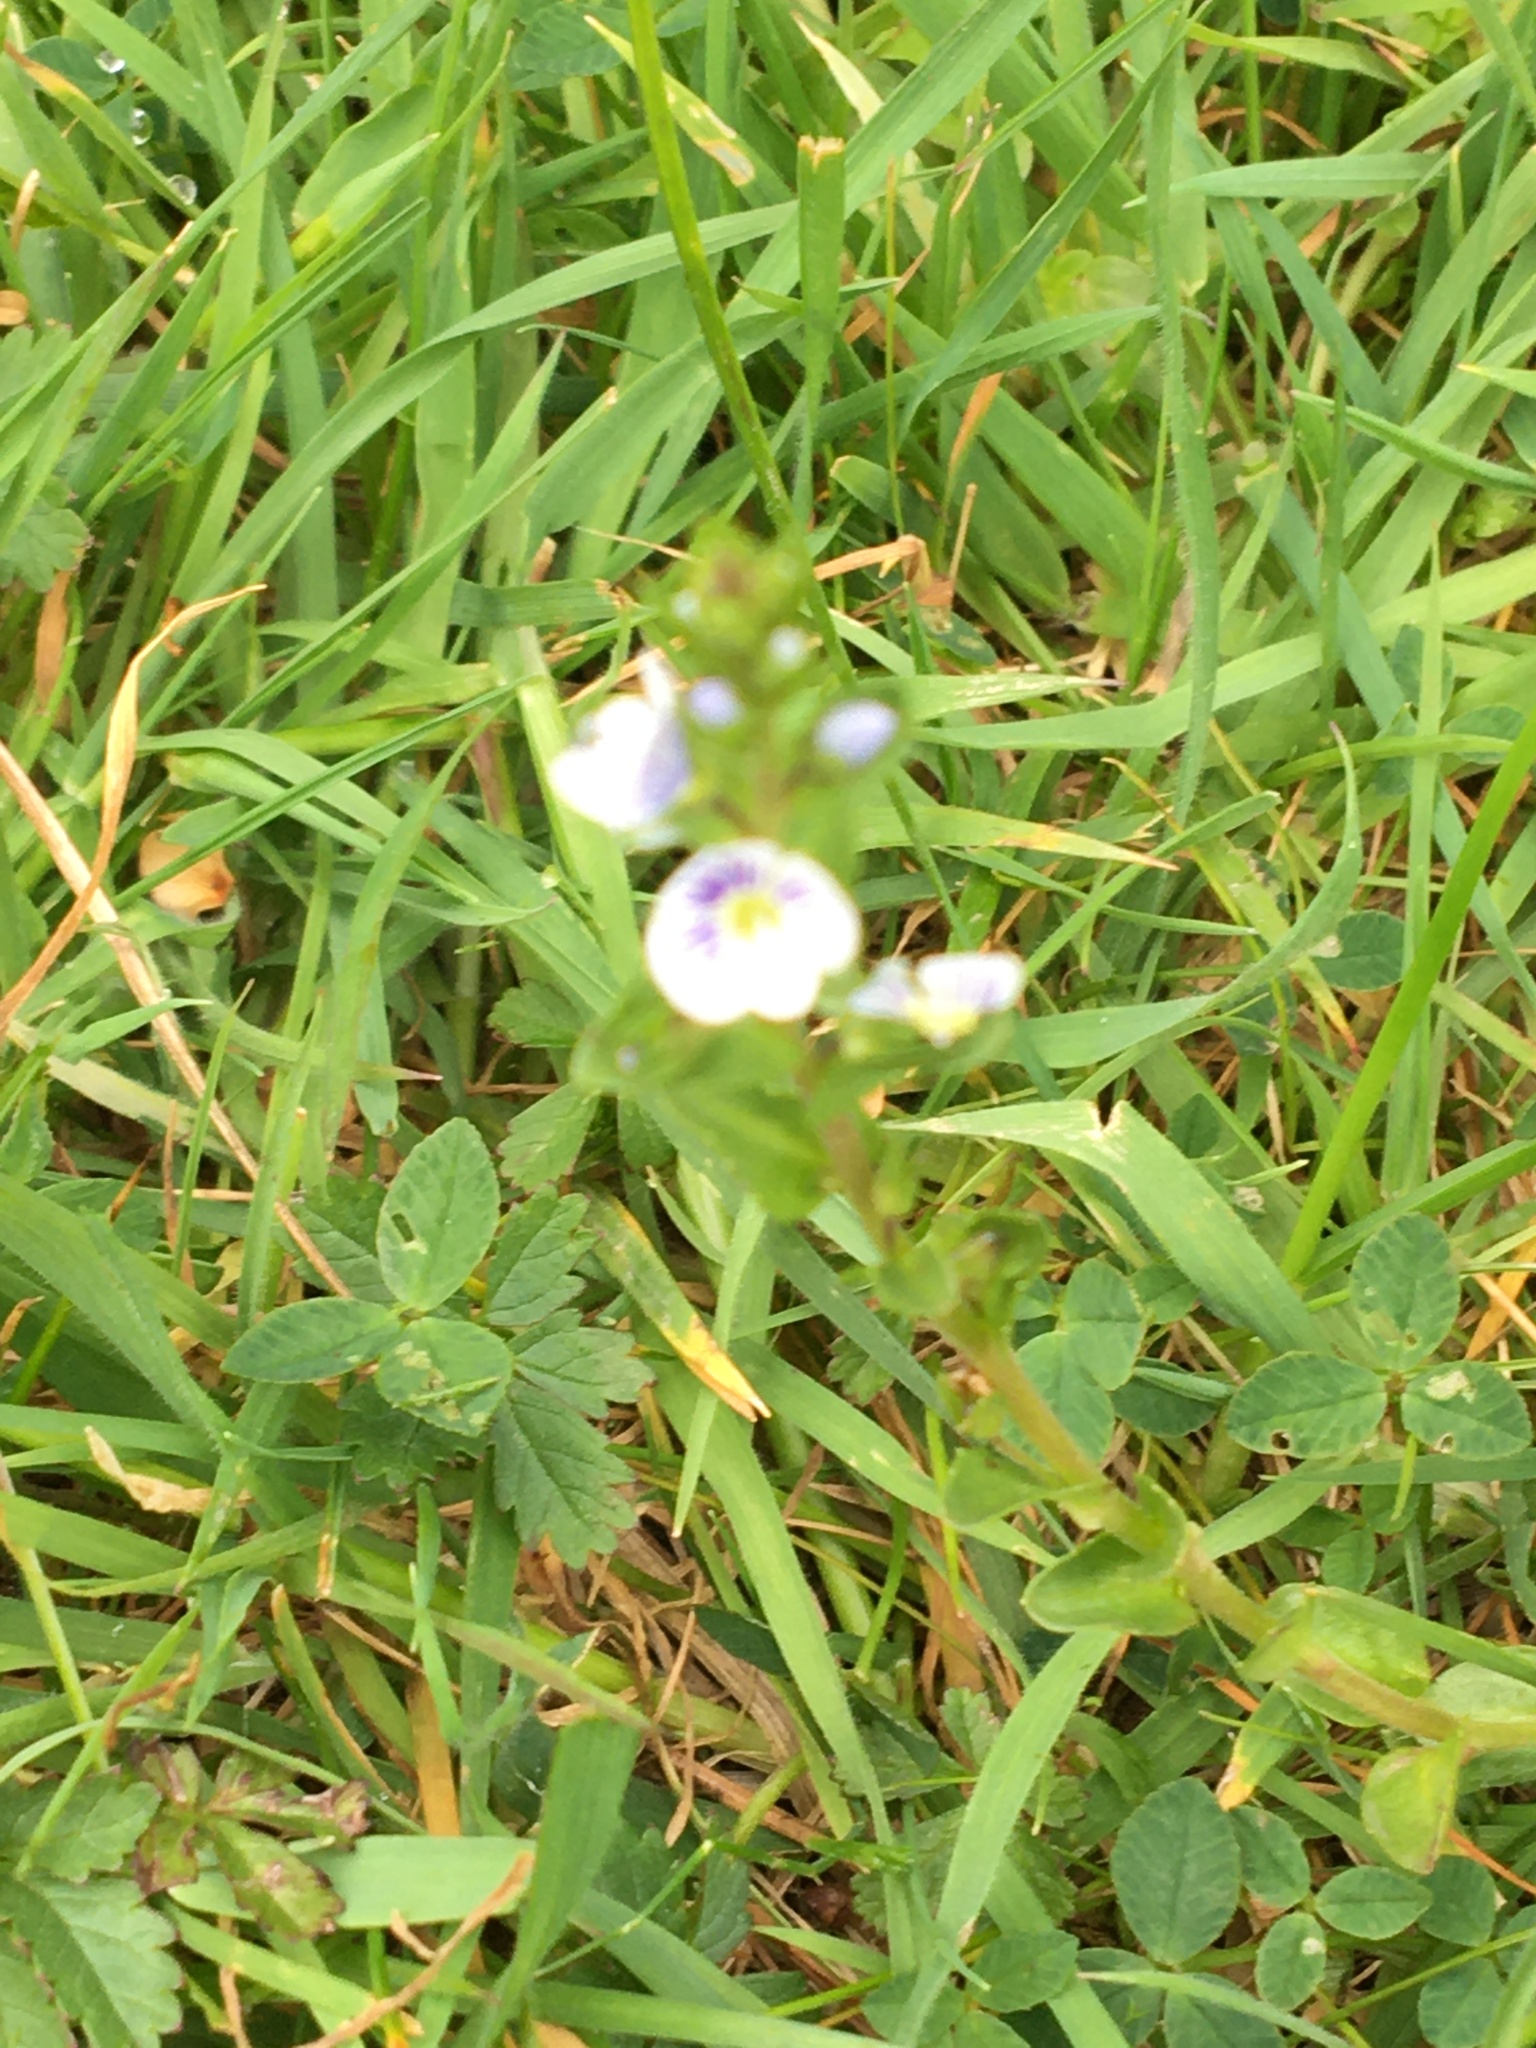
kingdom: Plantae
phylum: Tracheophyta
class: Magnoliopsida
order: Lamiales
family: Plantaginaceae
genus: Veronica
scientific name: Veronica serpyllifolia
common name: Thyme-leaved speedwell
